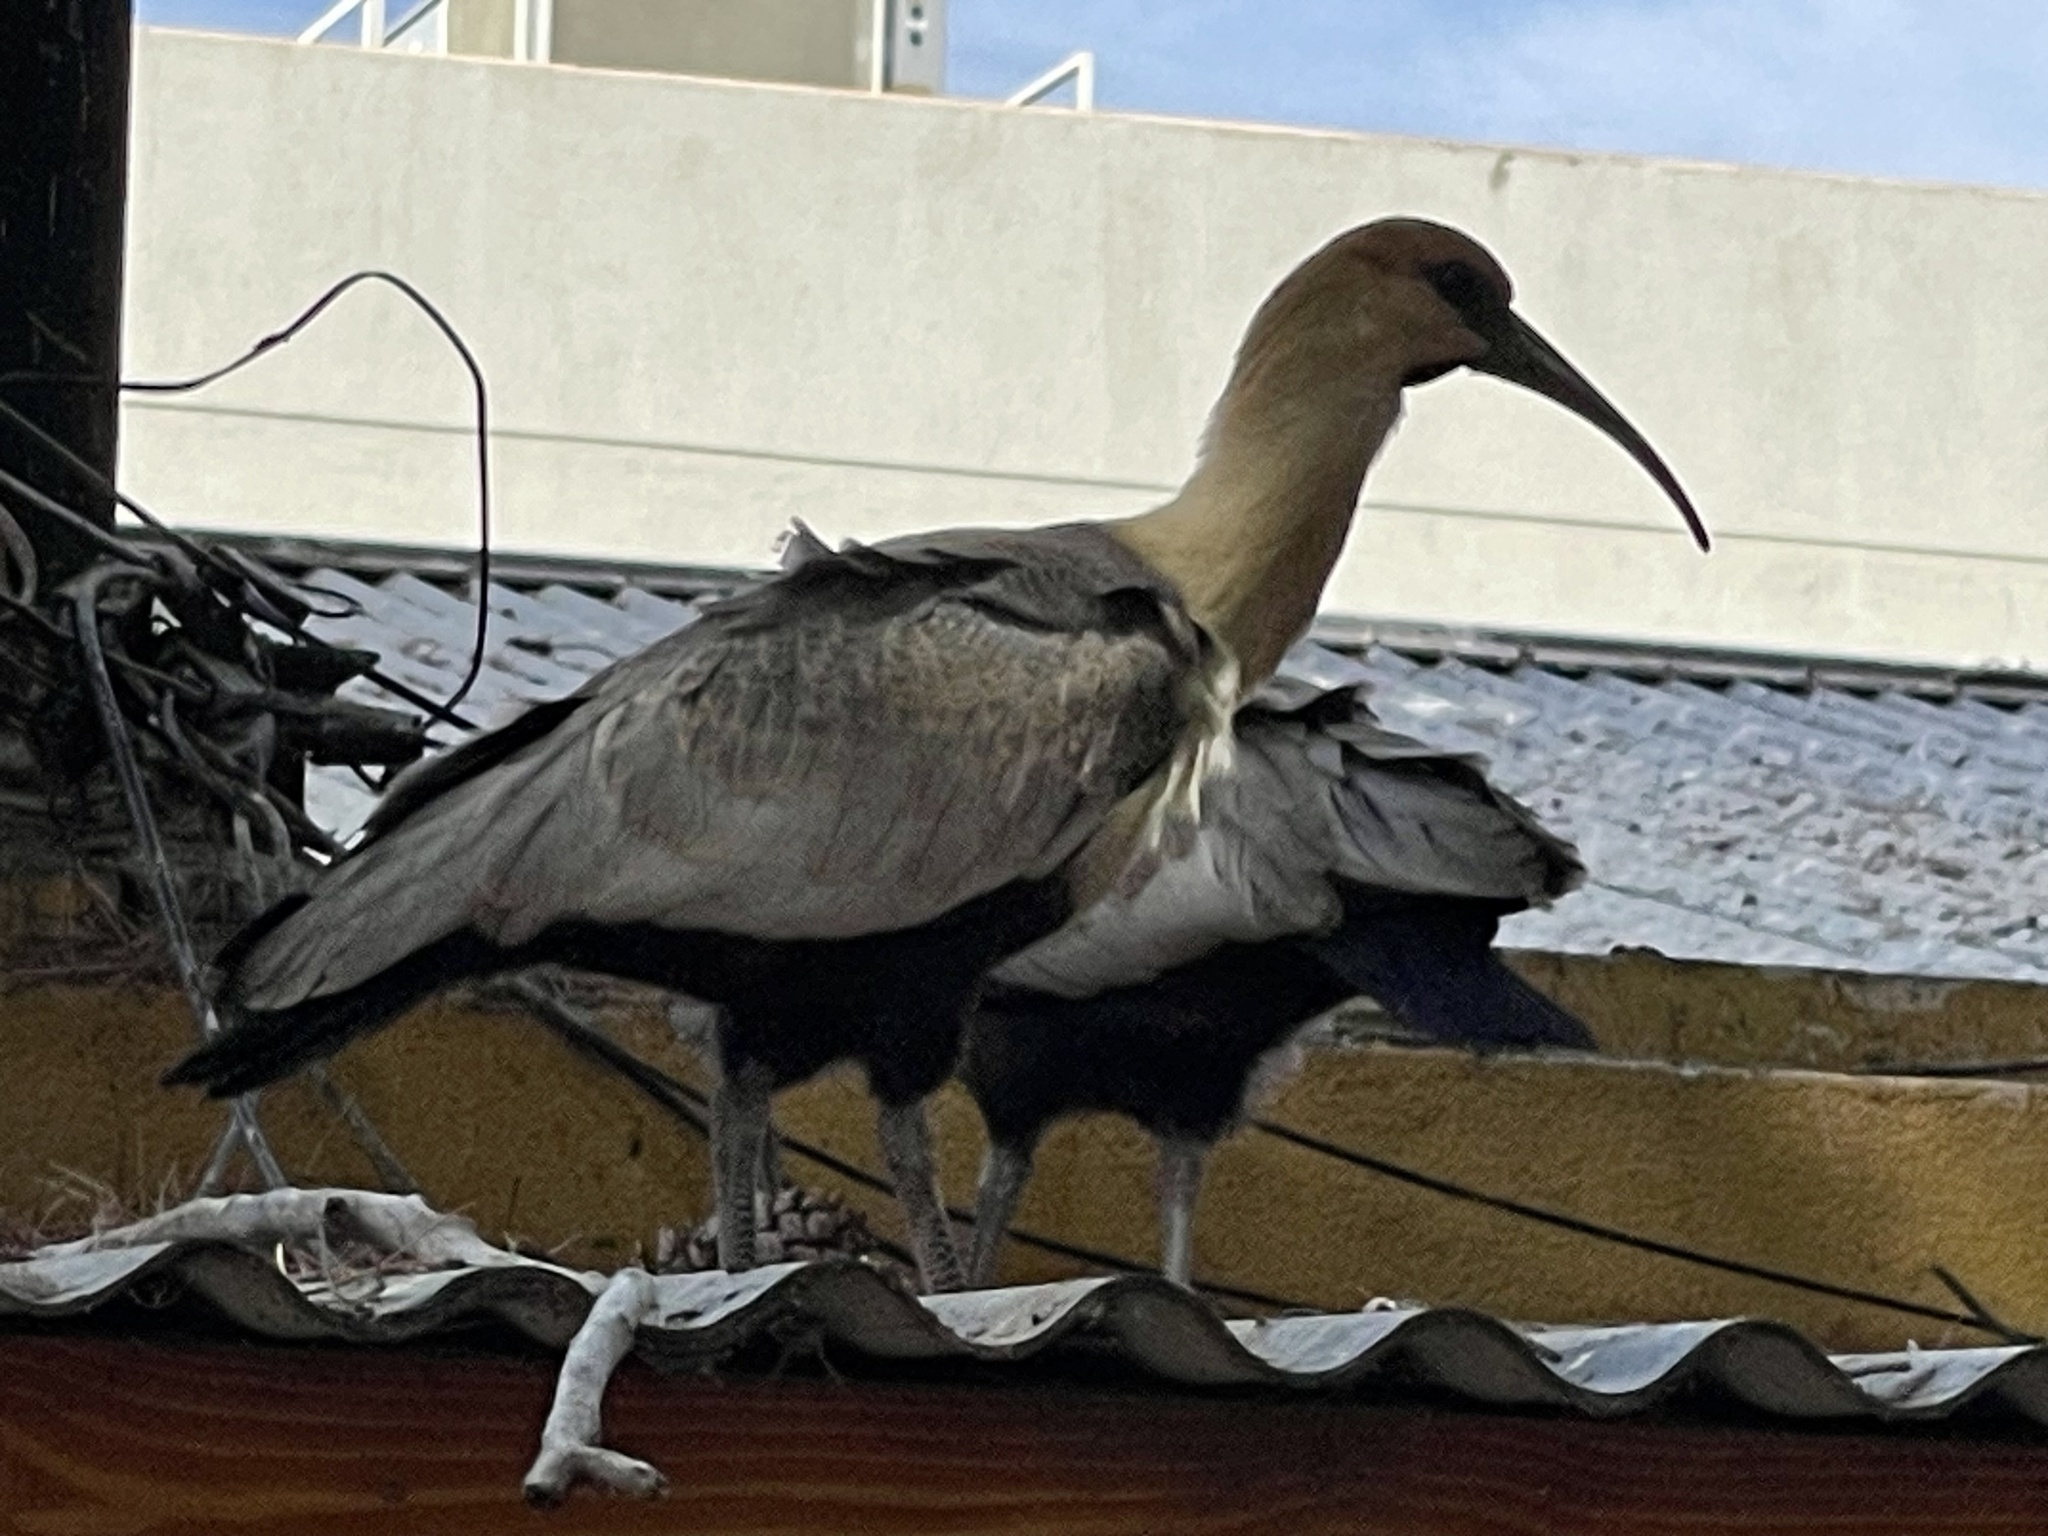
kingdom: Animalia
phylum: Chordata
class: Aves
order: Pelecaniformes
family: Threskiornithidae
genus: Theristicus
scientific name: Theristicus melanopis
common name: Black-faced ibis
